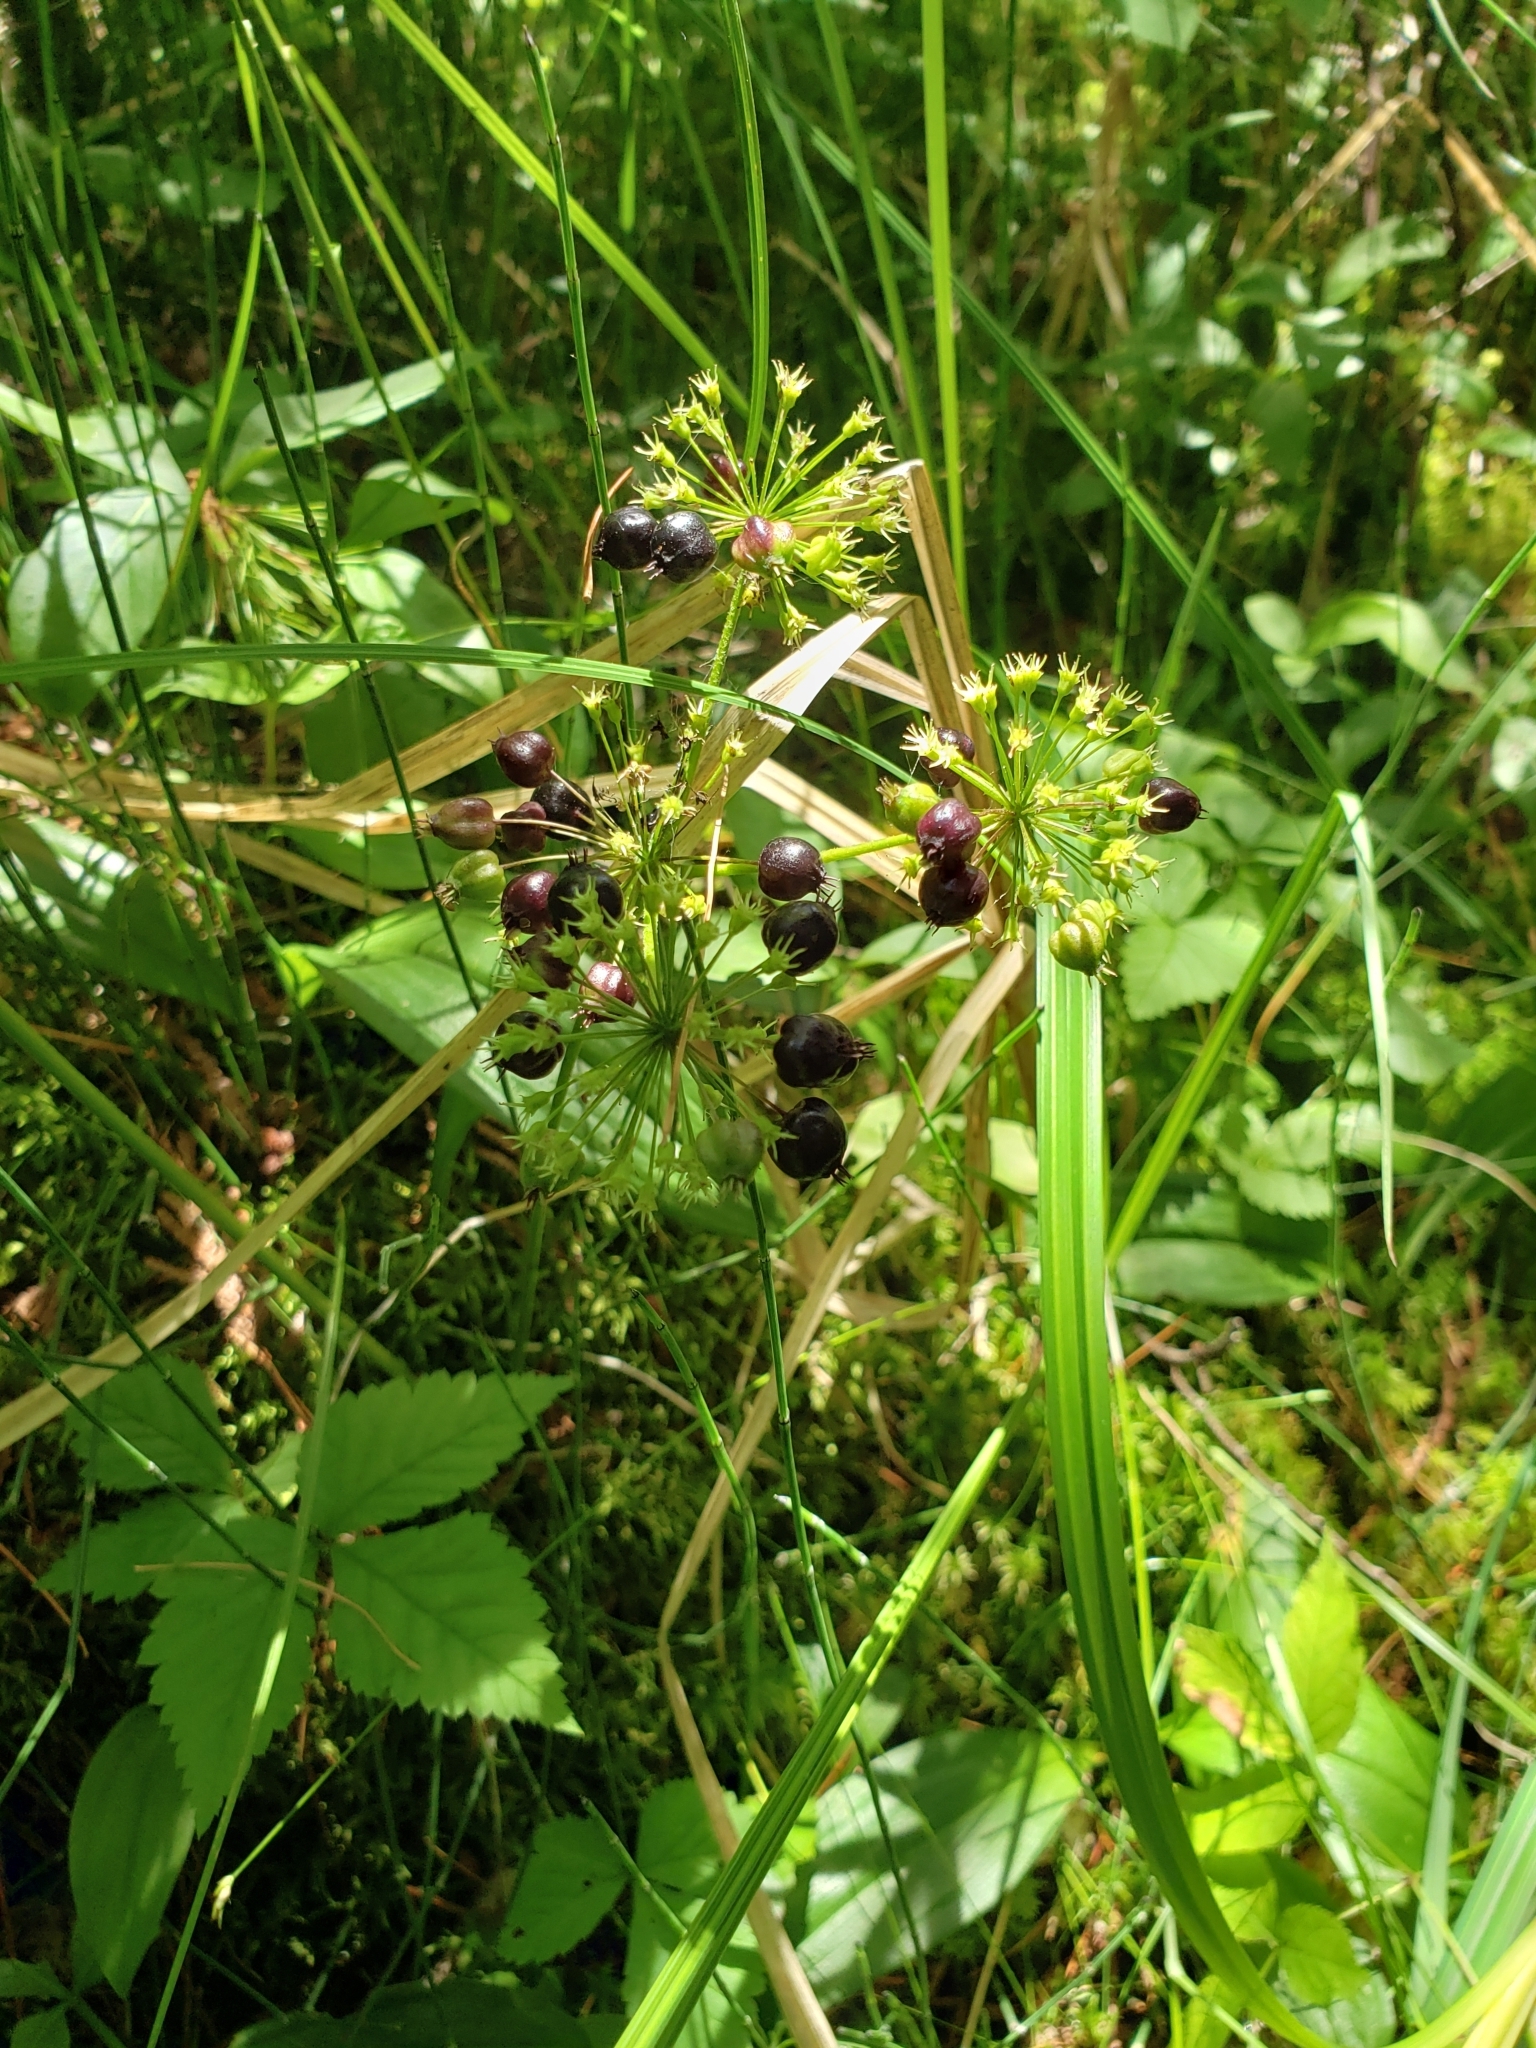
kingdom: Plantae
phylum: Tracheophyta
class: Magnoliopsida
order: Apiales
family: Araliaceae
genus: Aralia
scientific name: Aralia nudicaulis
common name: Wild sarsaparilla
